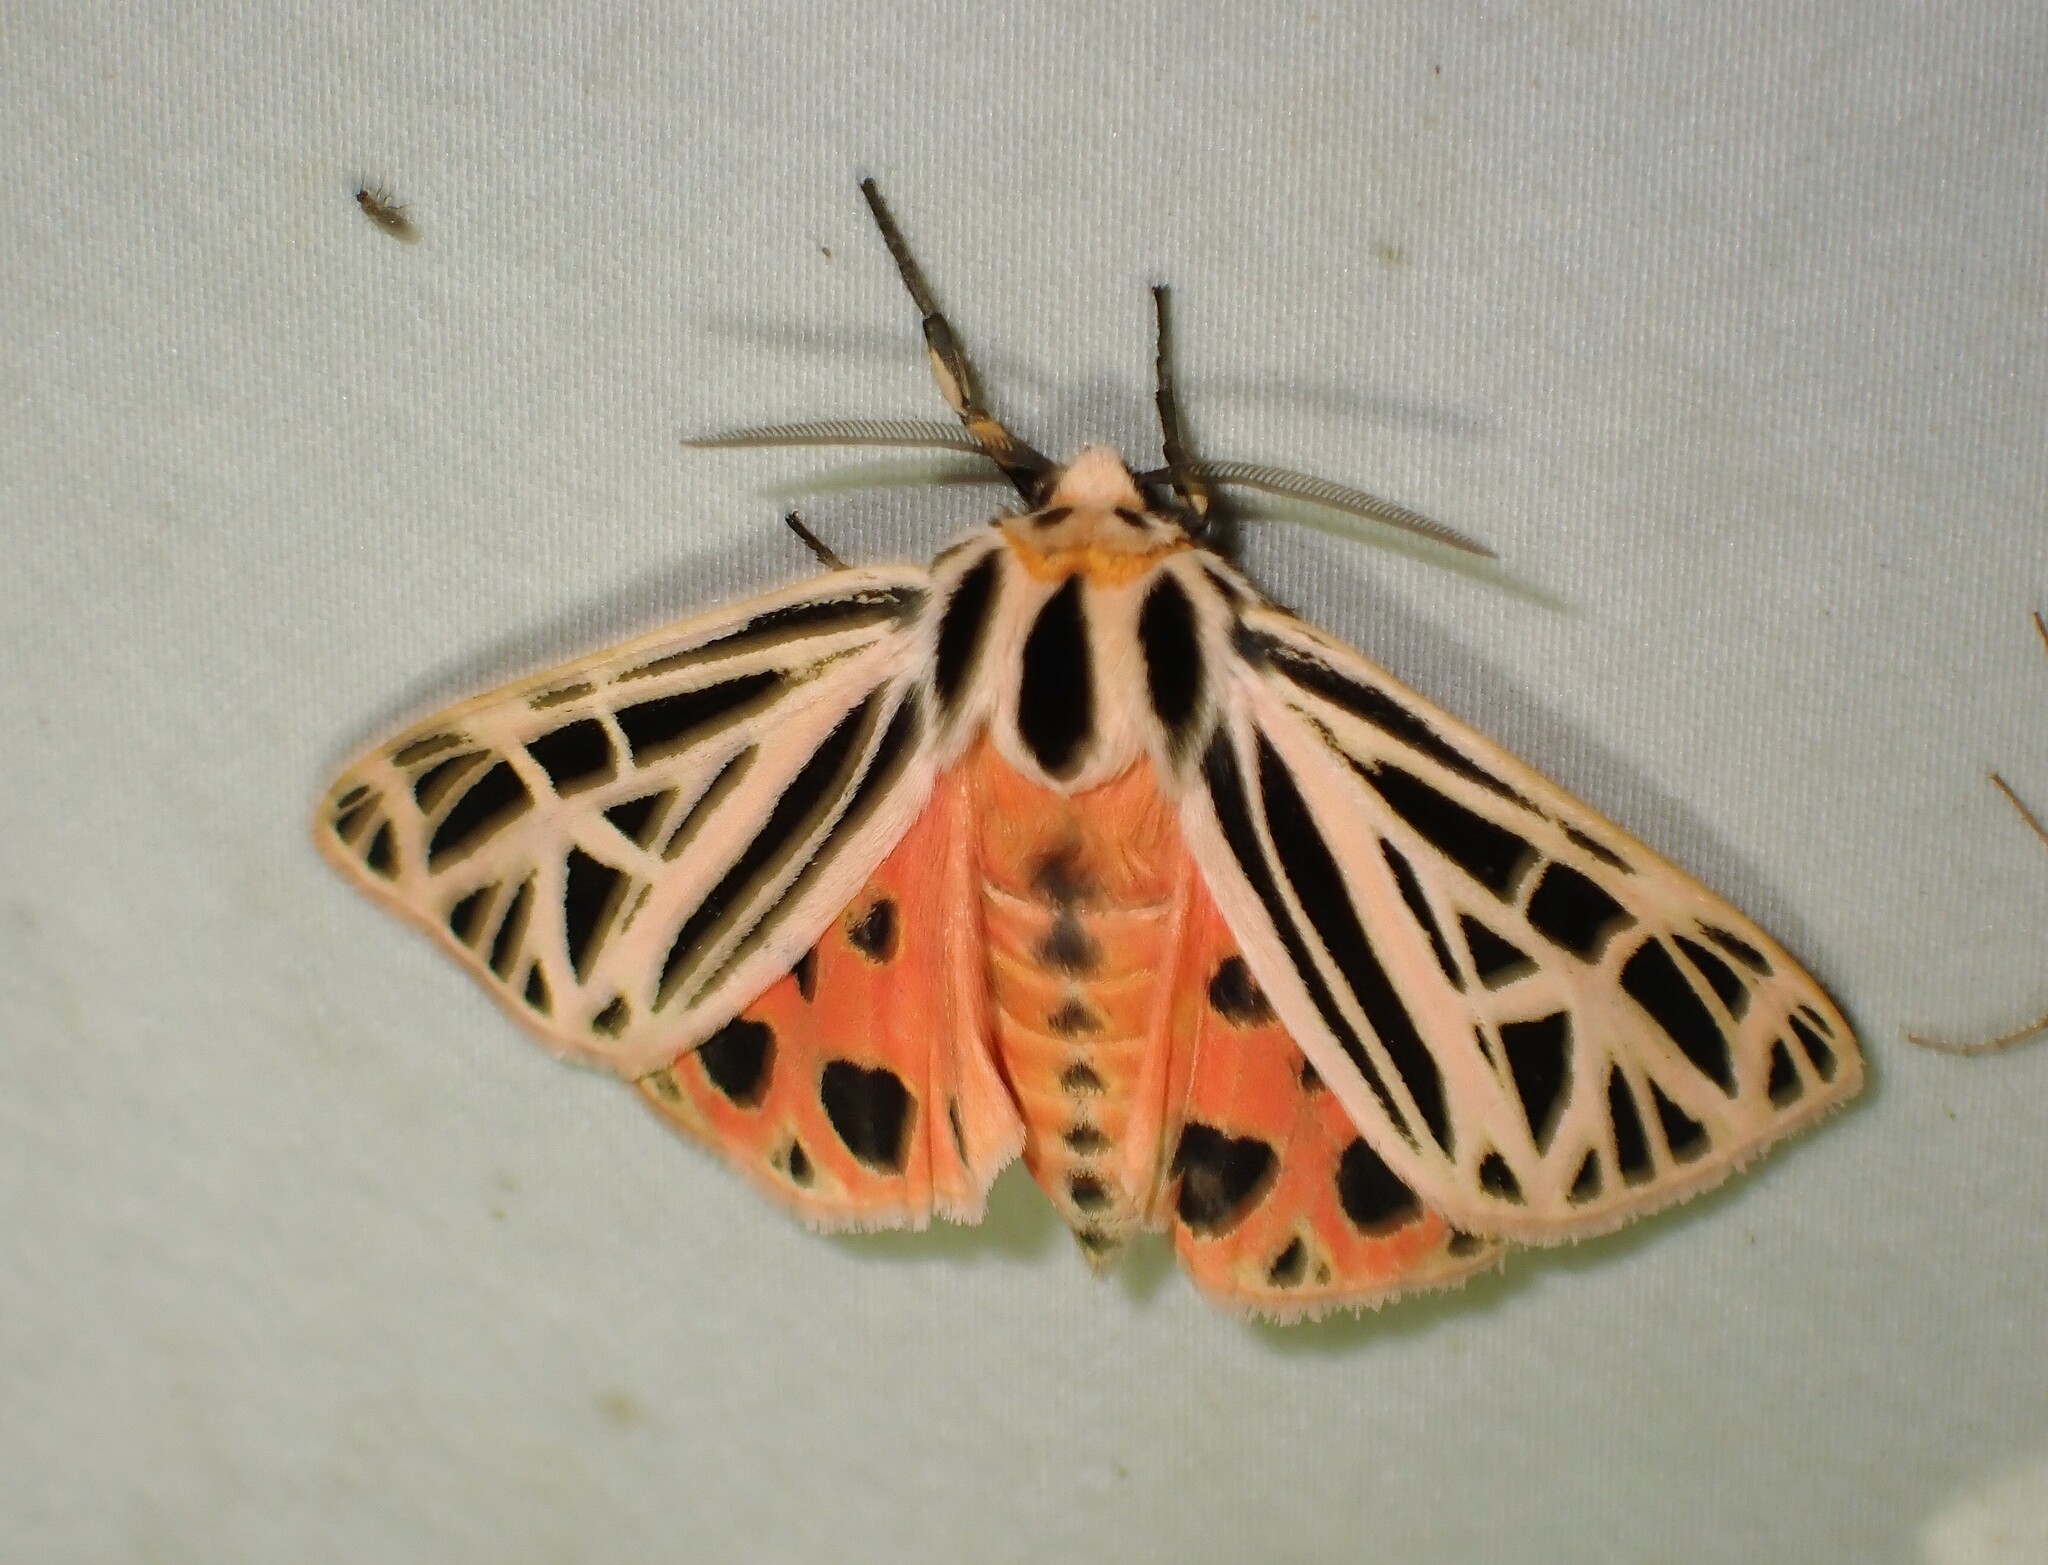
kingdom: Animalia
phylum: Arthropoda
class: Insecta
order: Lepidoptera
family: Erebidae
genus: Grammia
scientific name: Grammia virgo
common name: Virgin tiger moth
